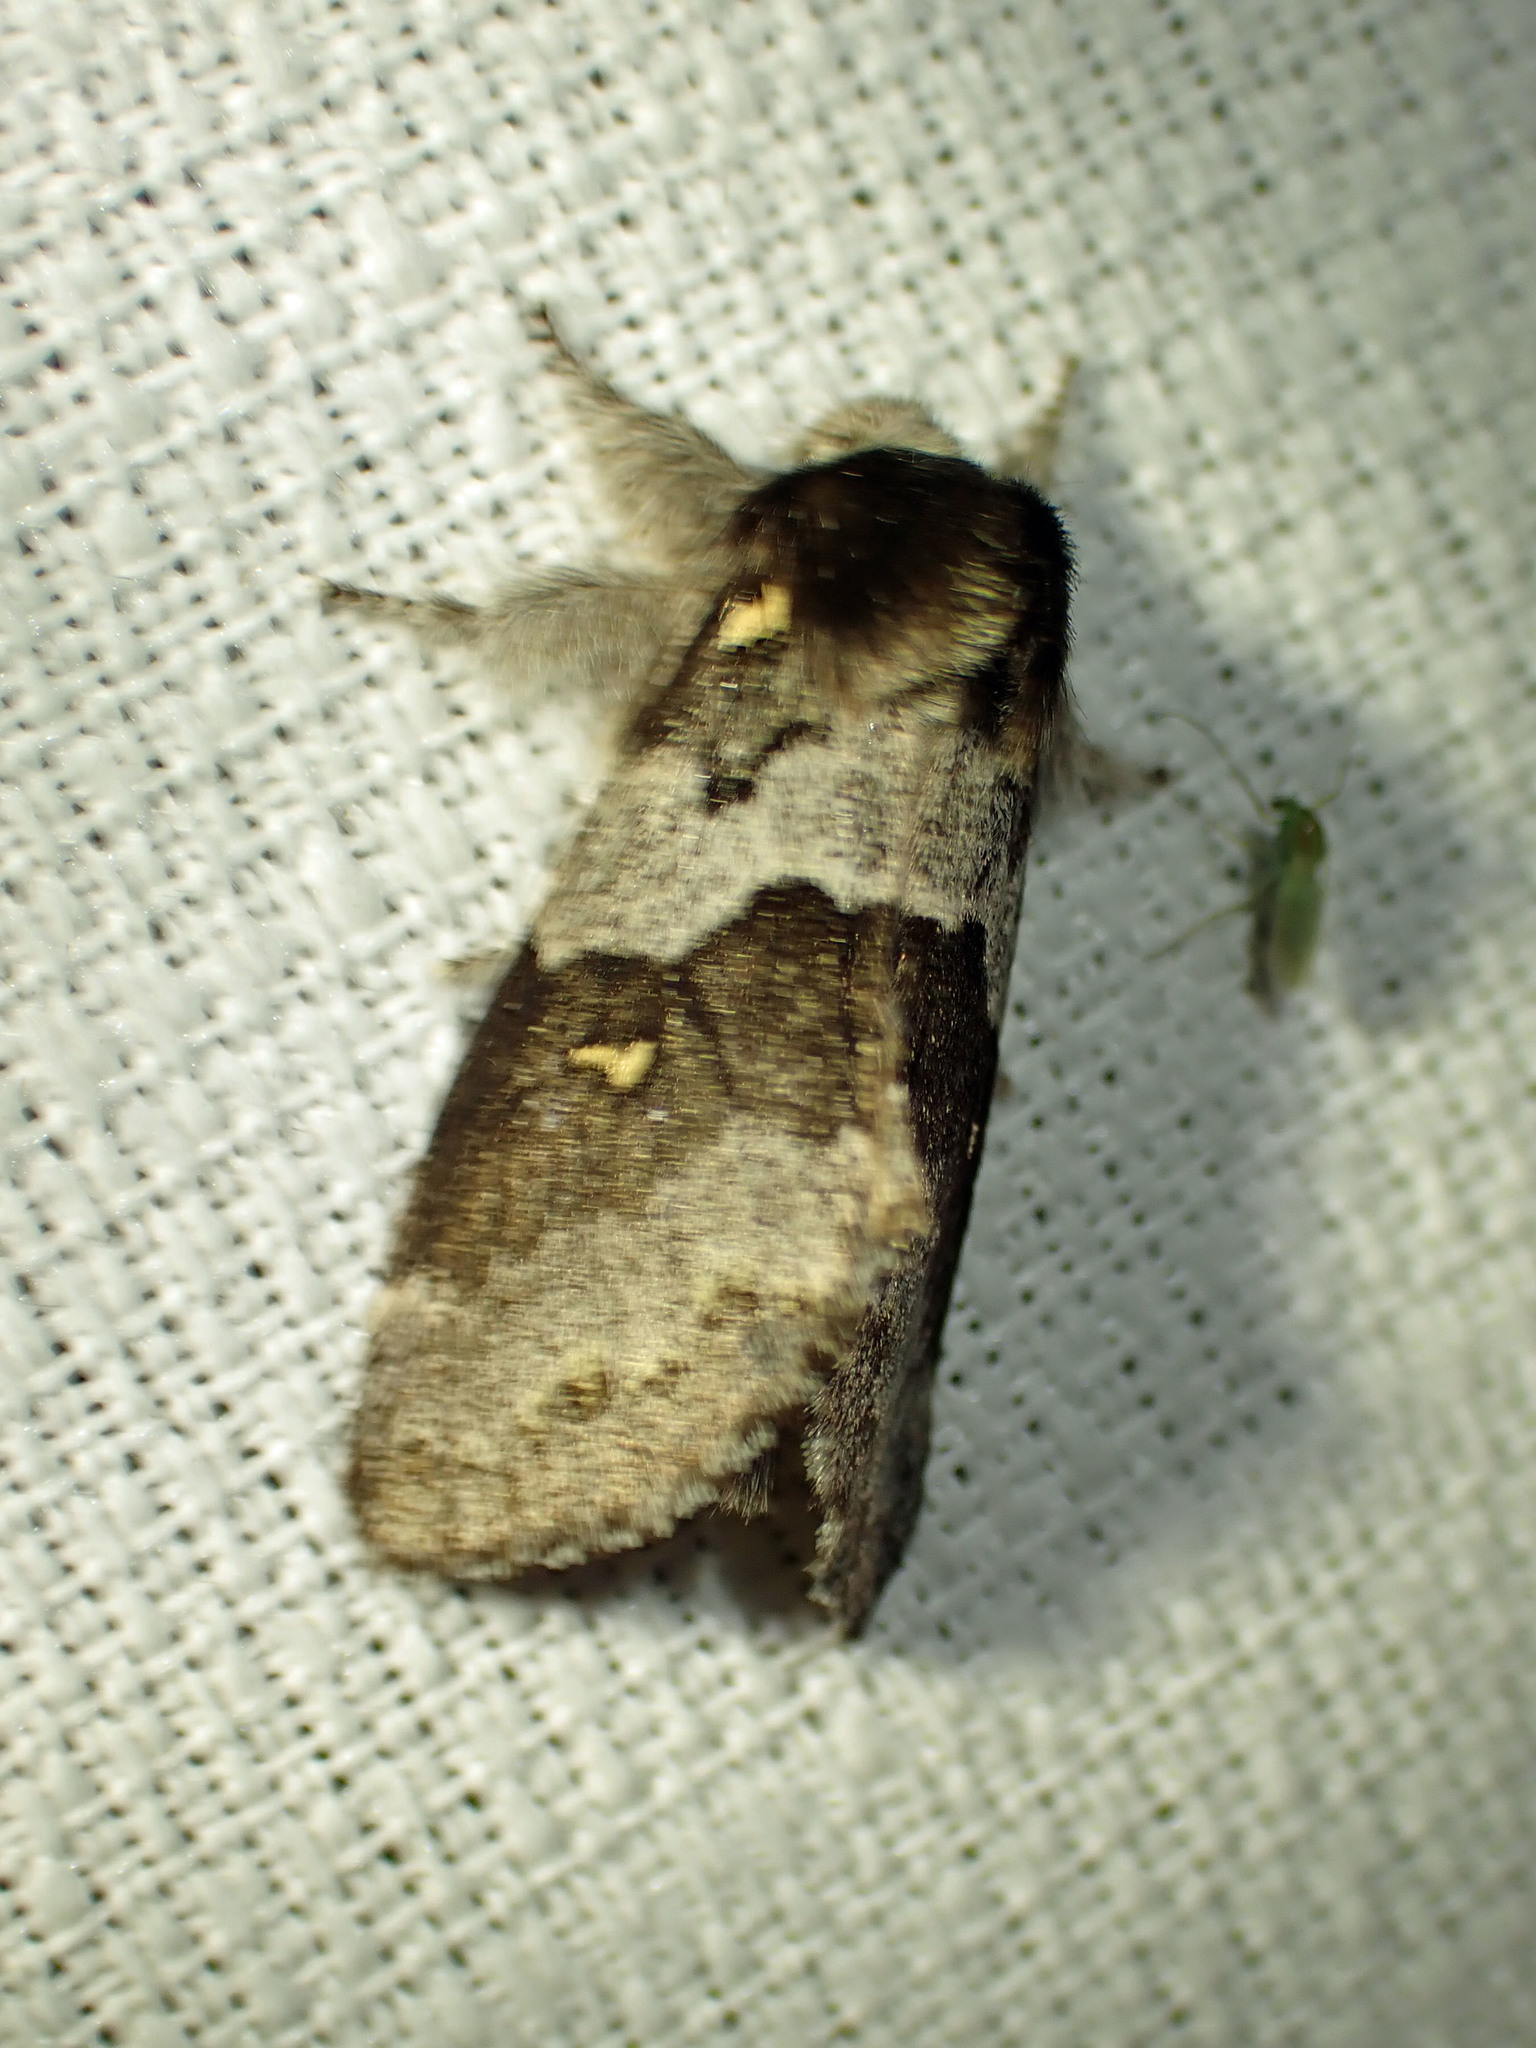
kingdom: Animalia
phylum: Arthropoda
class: Insecta
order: Lepidoptera
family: Notodontidae
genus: Gluphisia
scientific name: Gluphisia avimacula
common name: Four-spotted gluphisia moth
